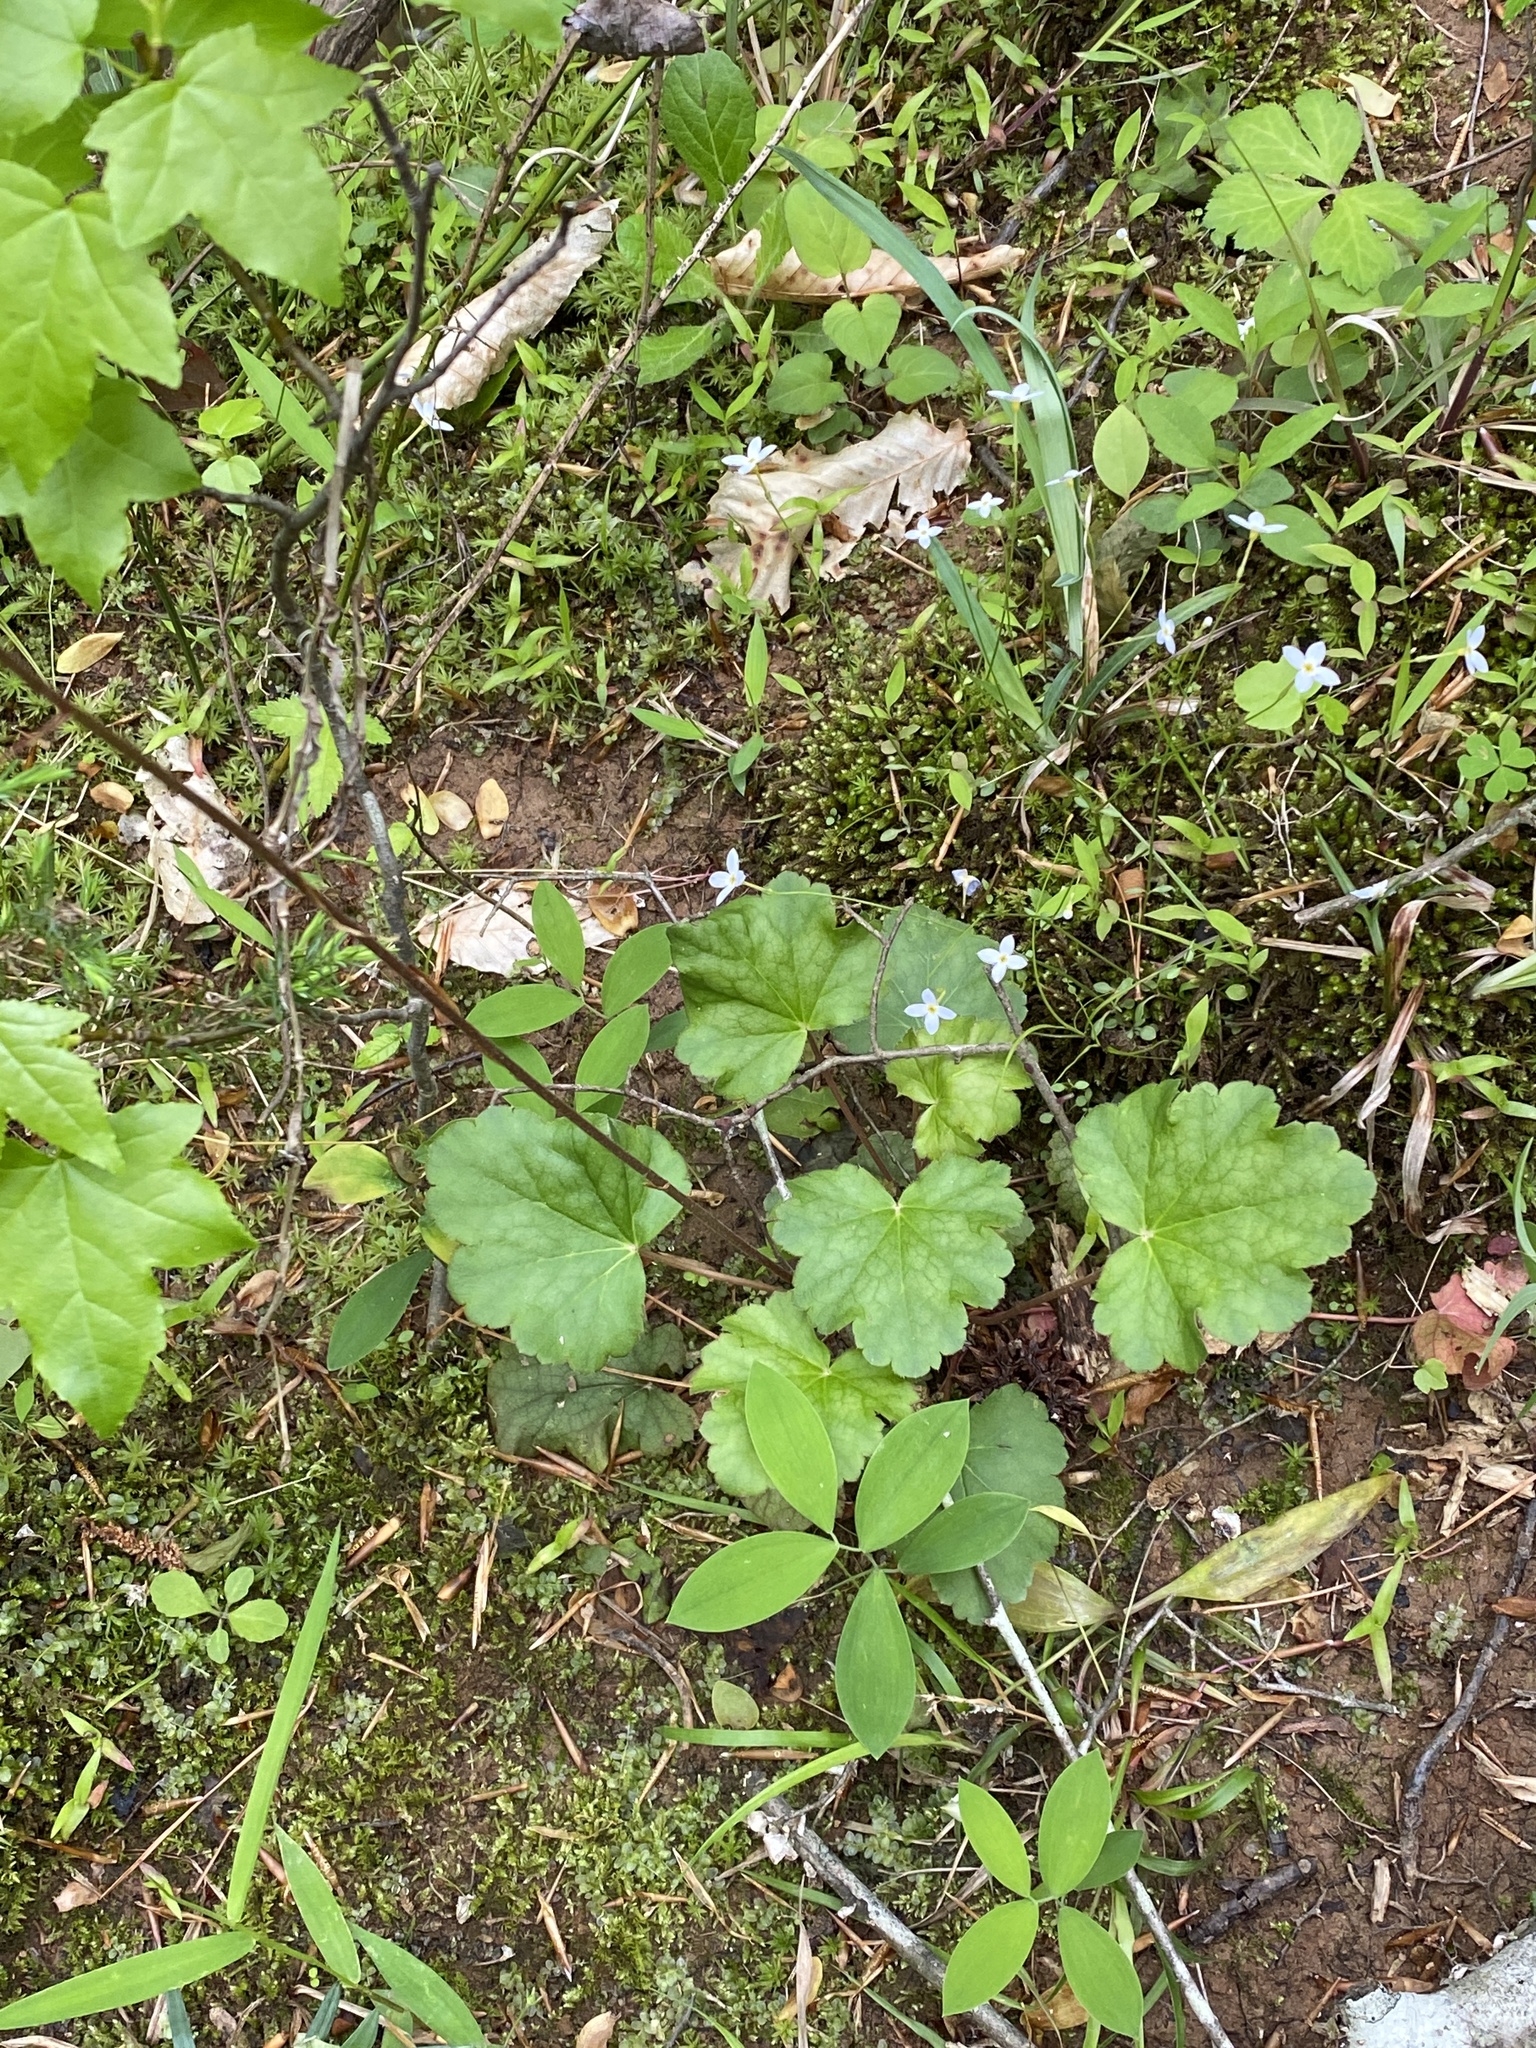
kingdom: Plantae
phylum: Tracheophyta
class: Magnoliopsida
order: Saxifragales
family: Saxifragaceae
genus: Heuchera
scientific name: Heuchera americana
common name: Alumroot
